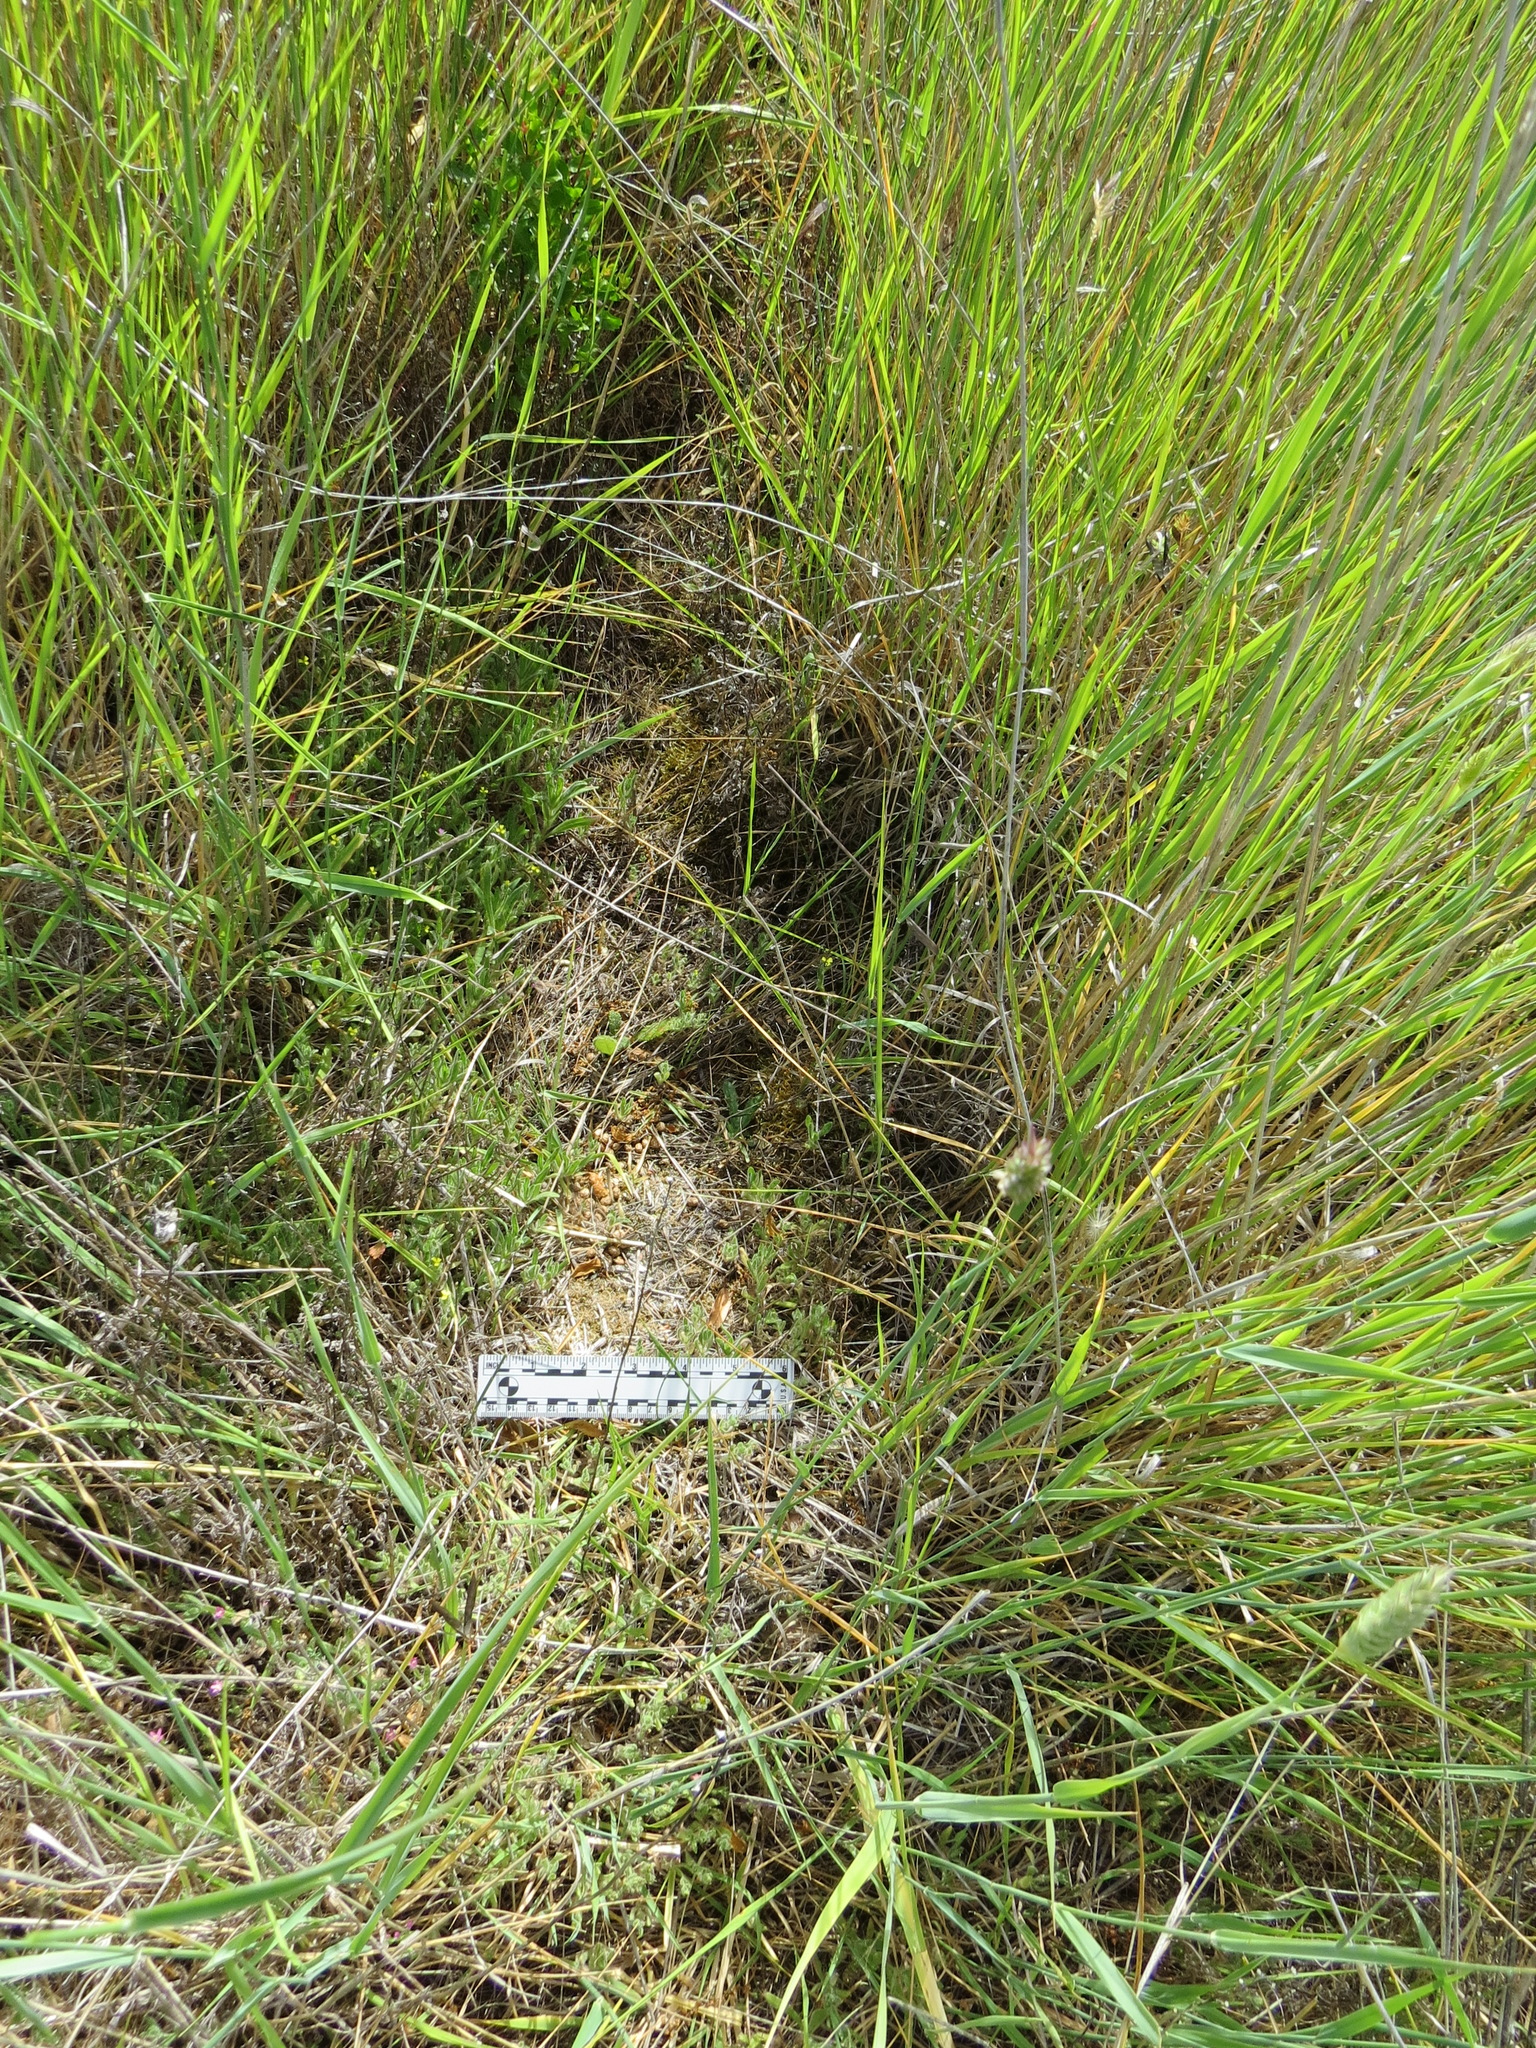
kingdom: Animalia
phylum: Chordata
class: Mammalia
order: Lagomorpha
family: Leporidae
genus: Sylvilagus
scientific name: Sylvilagus bachmani
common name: Brush rabbit
